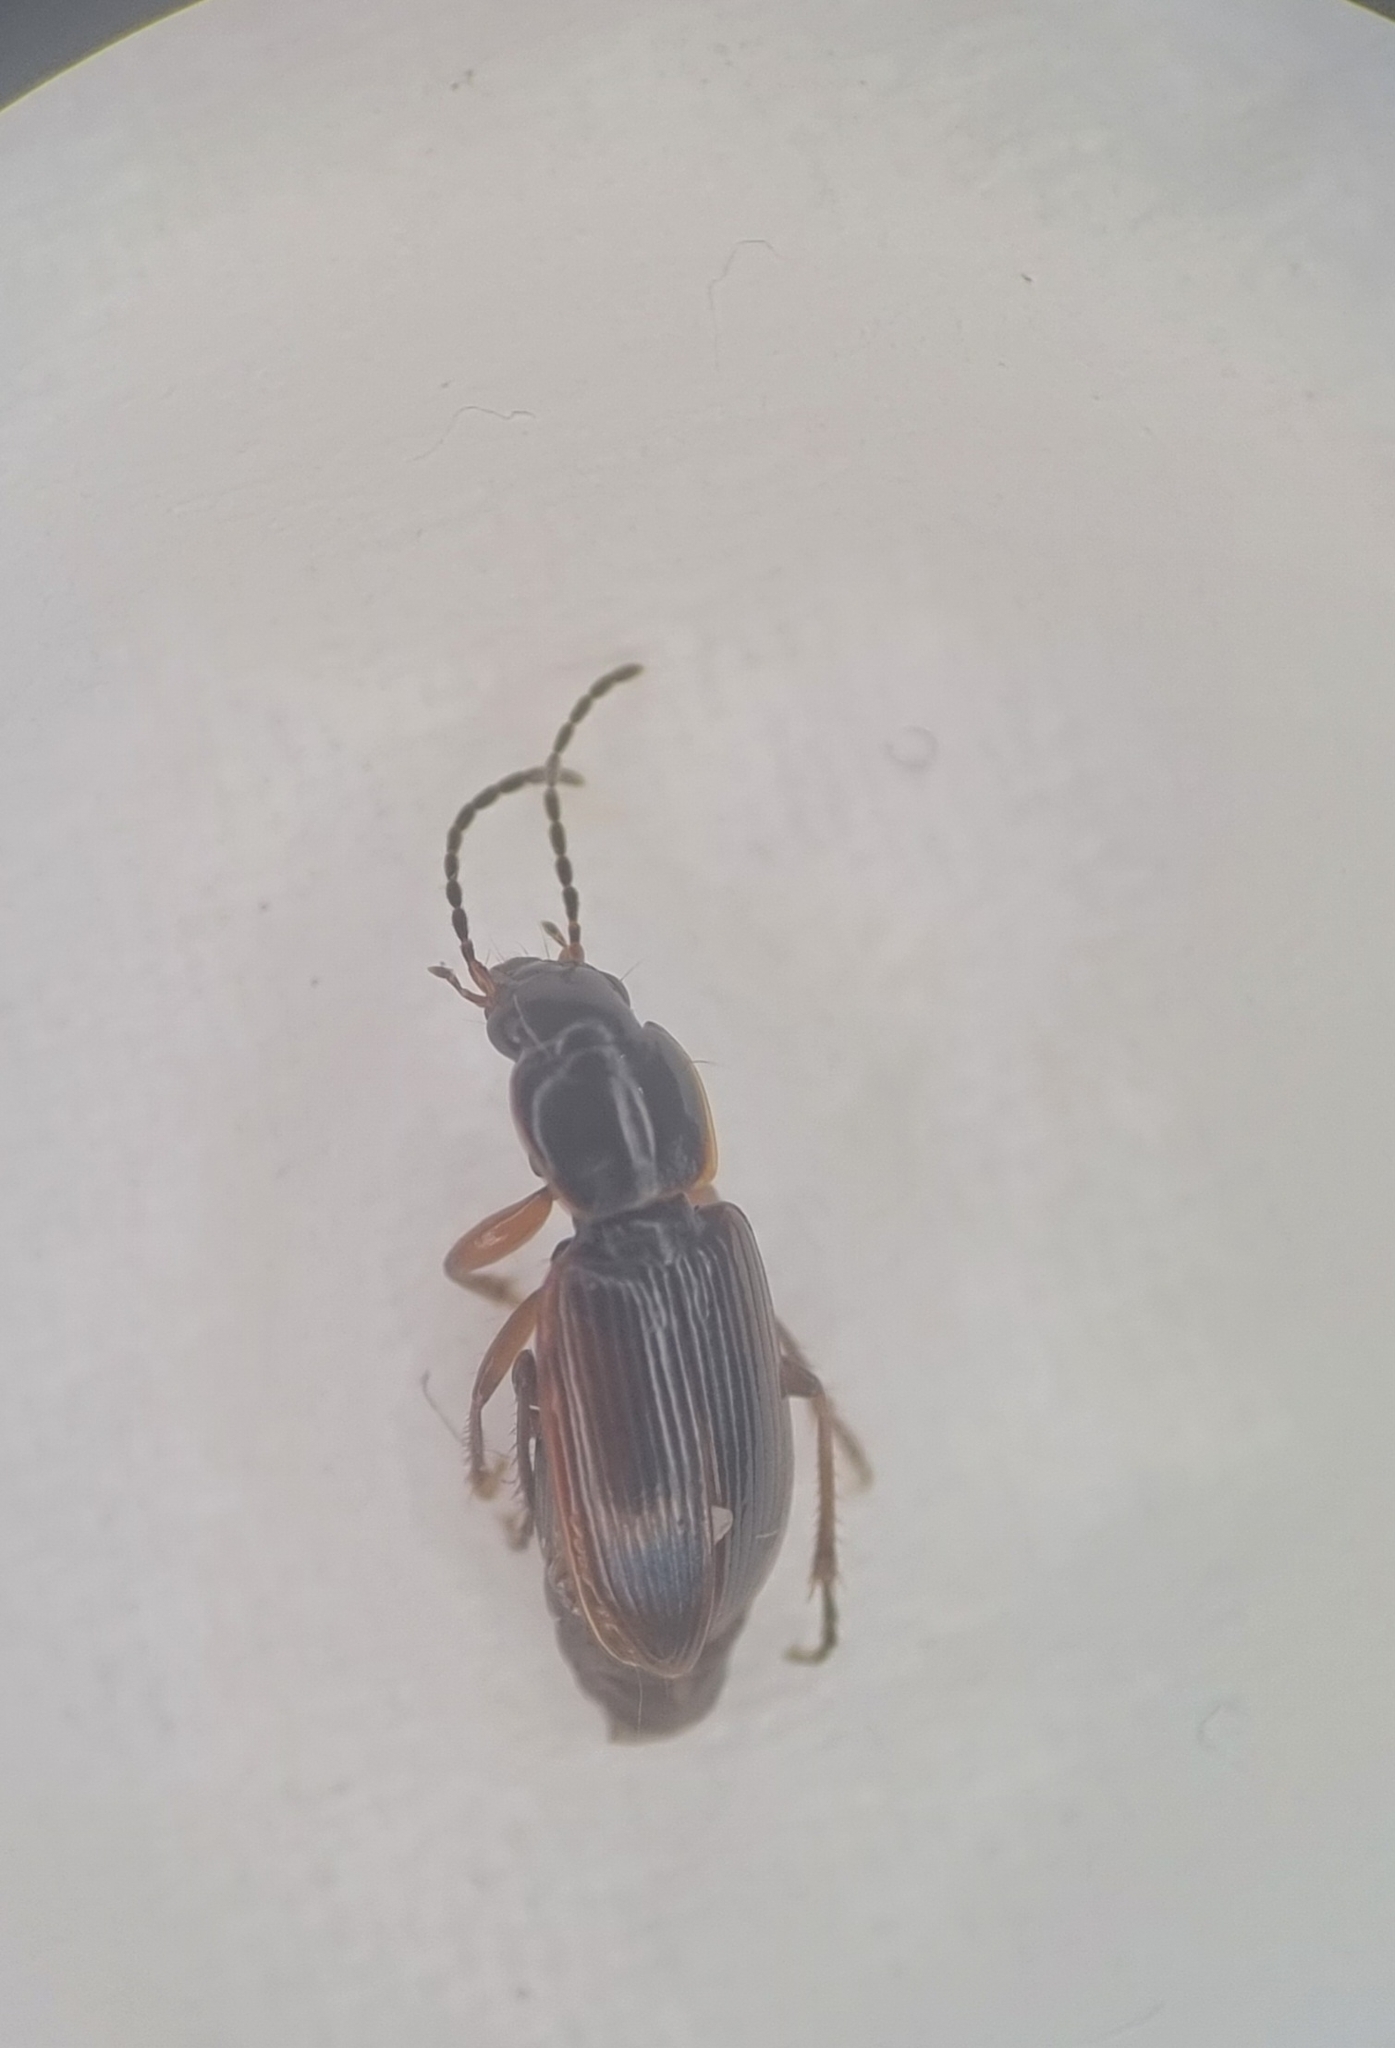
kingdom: Animalia
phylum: Arthropoda
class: Insecta
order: Coleoptera
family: Carabidae
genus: Stenolophus
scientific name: Stenolophus mixtus
